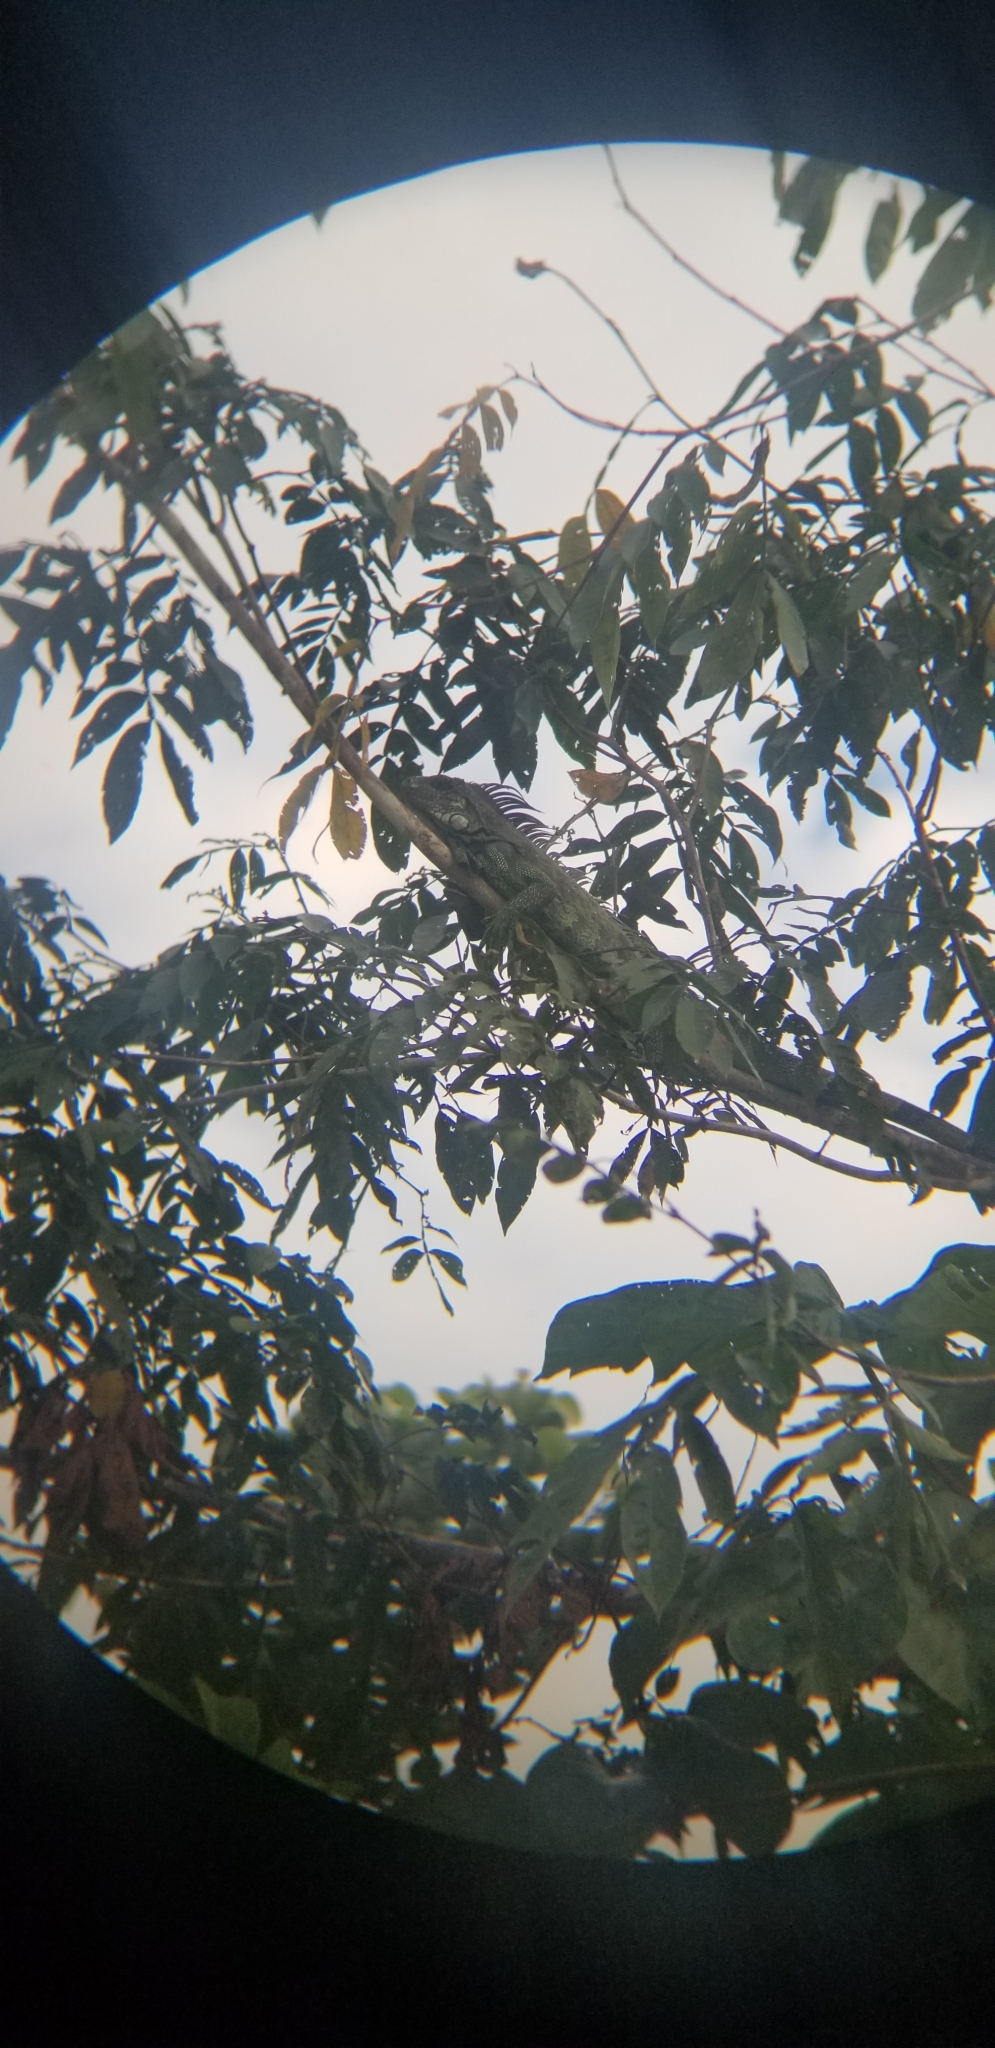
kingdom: Animalia
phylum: Chordata
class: Squamata
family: Iguanidae
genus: Iguana
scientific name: Iguana iguana
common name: Green iguana
